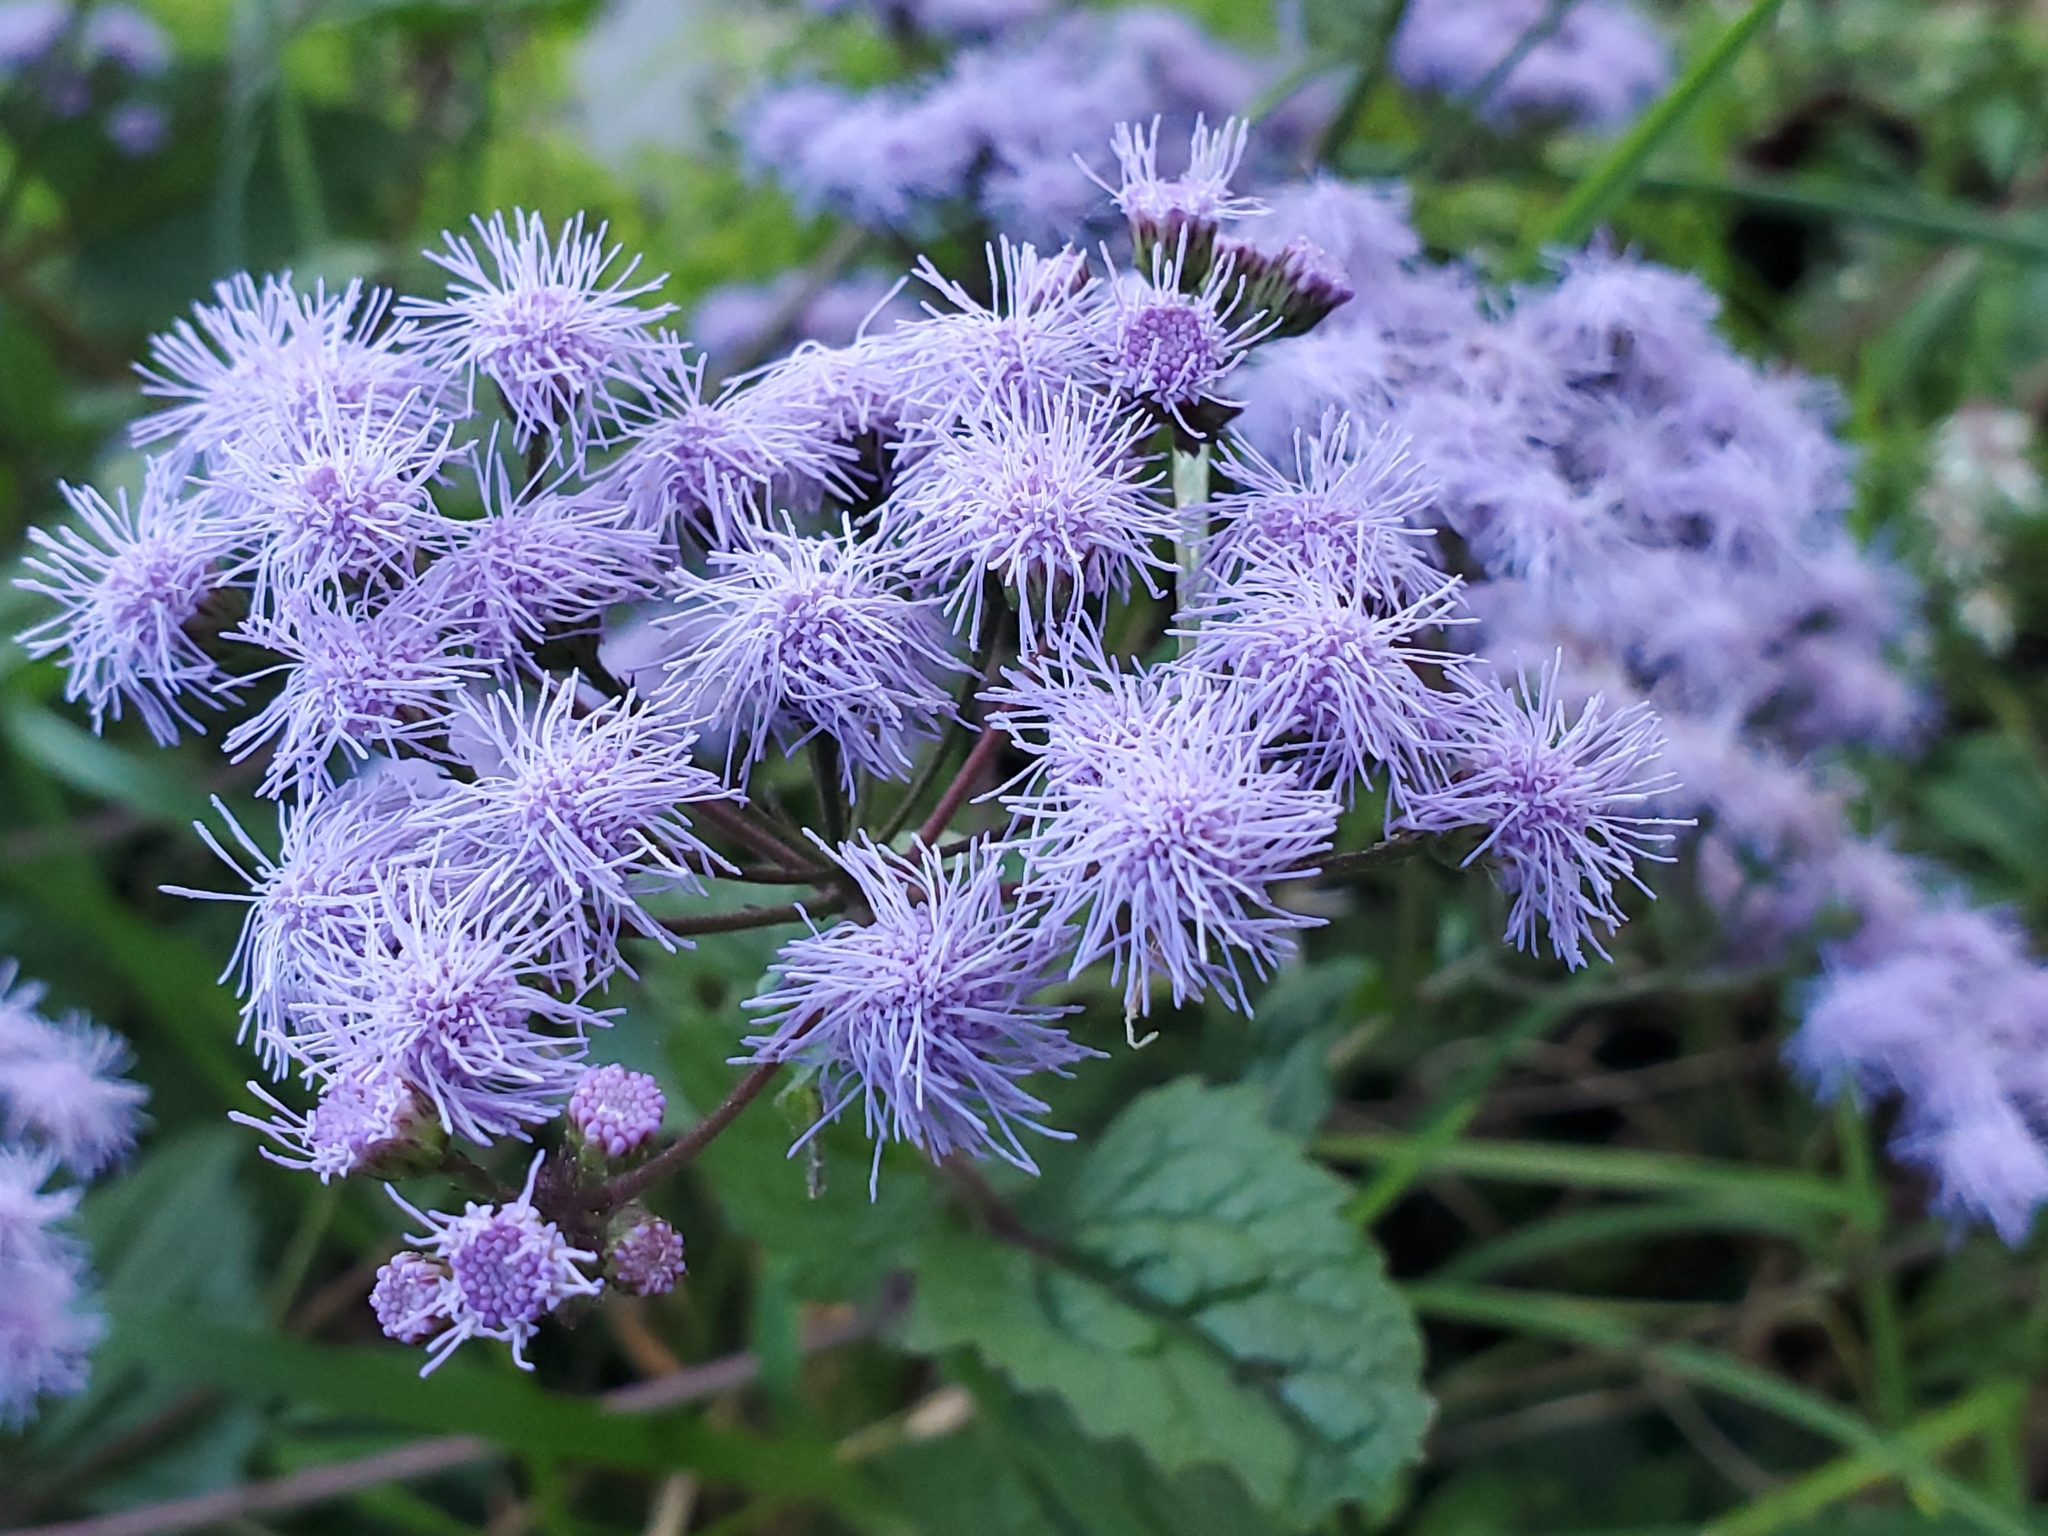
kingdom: Plantae
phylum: Tracheophyta
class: Magnoliopsida
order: Asterales
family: Asteraceae
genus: Conoclinium
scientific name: Conoclinium coelestinum
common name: Blue mistflower
